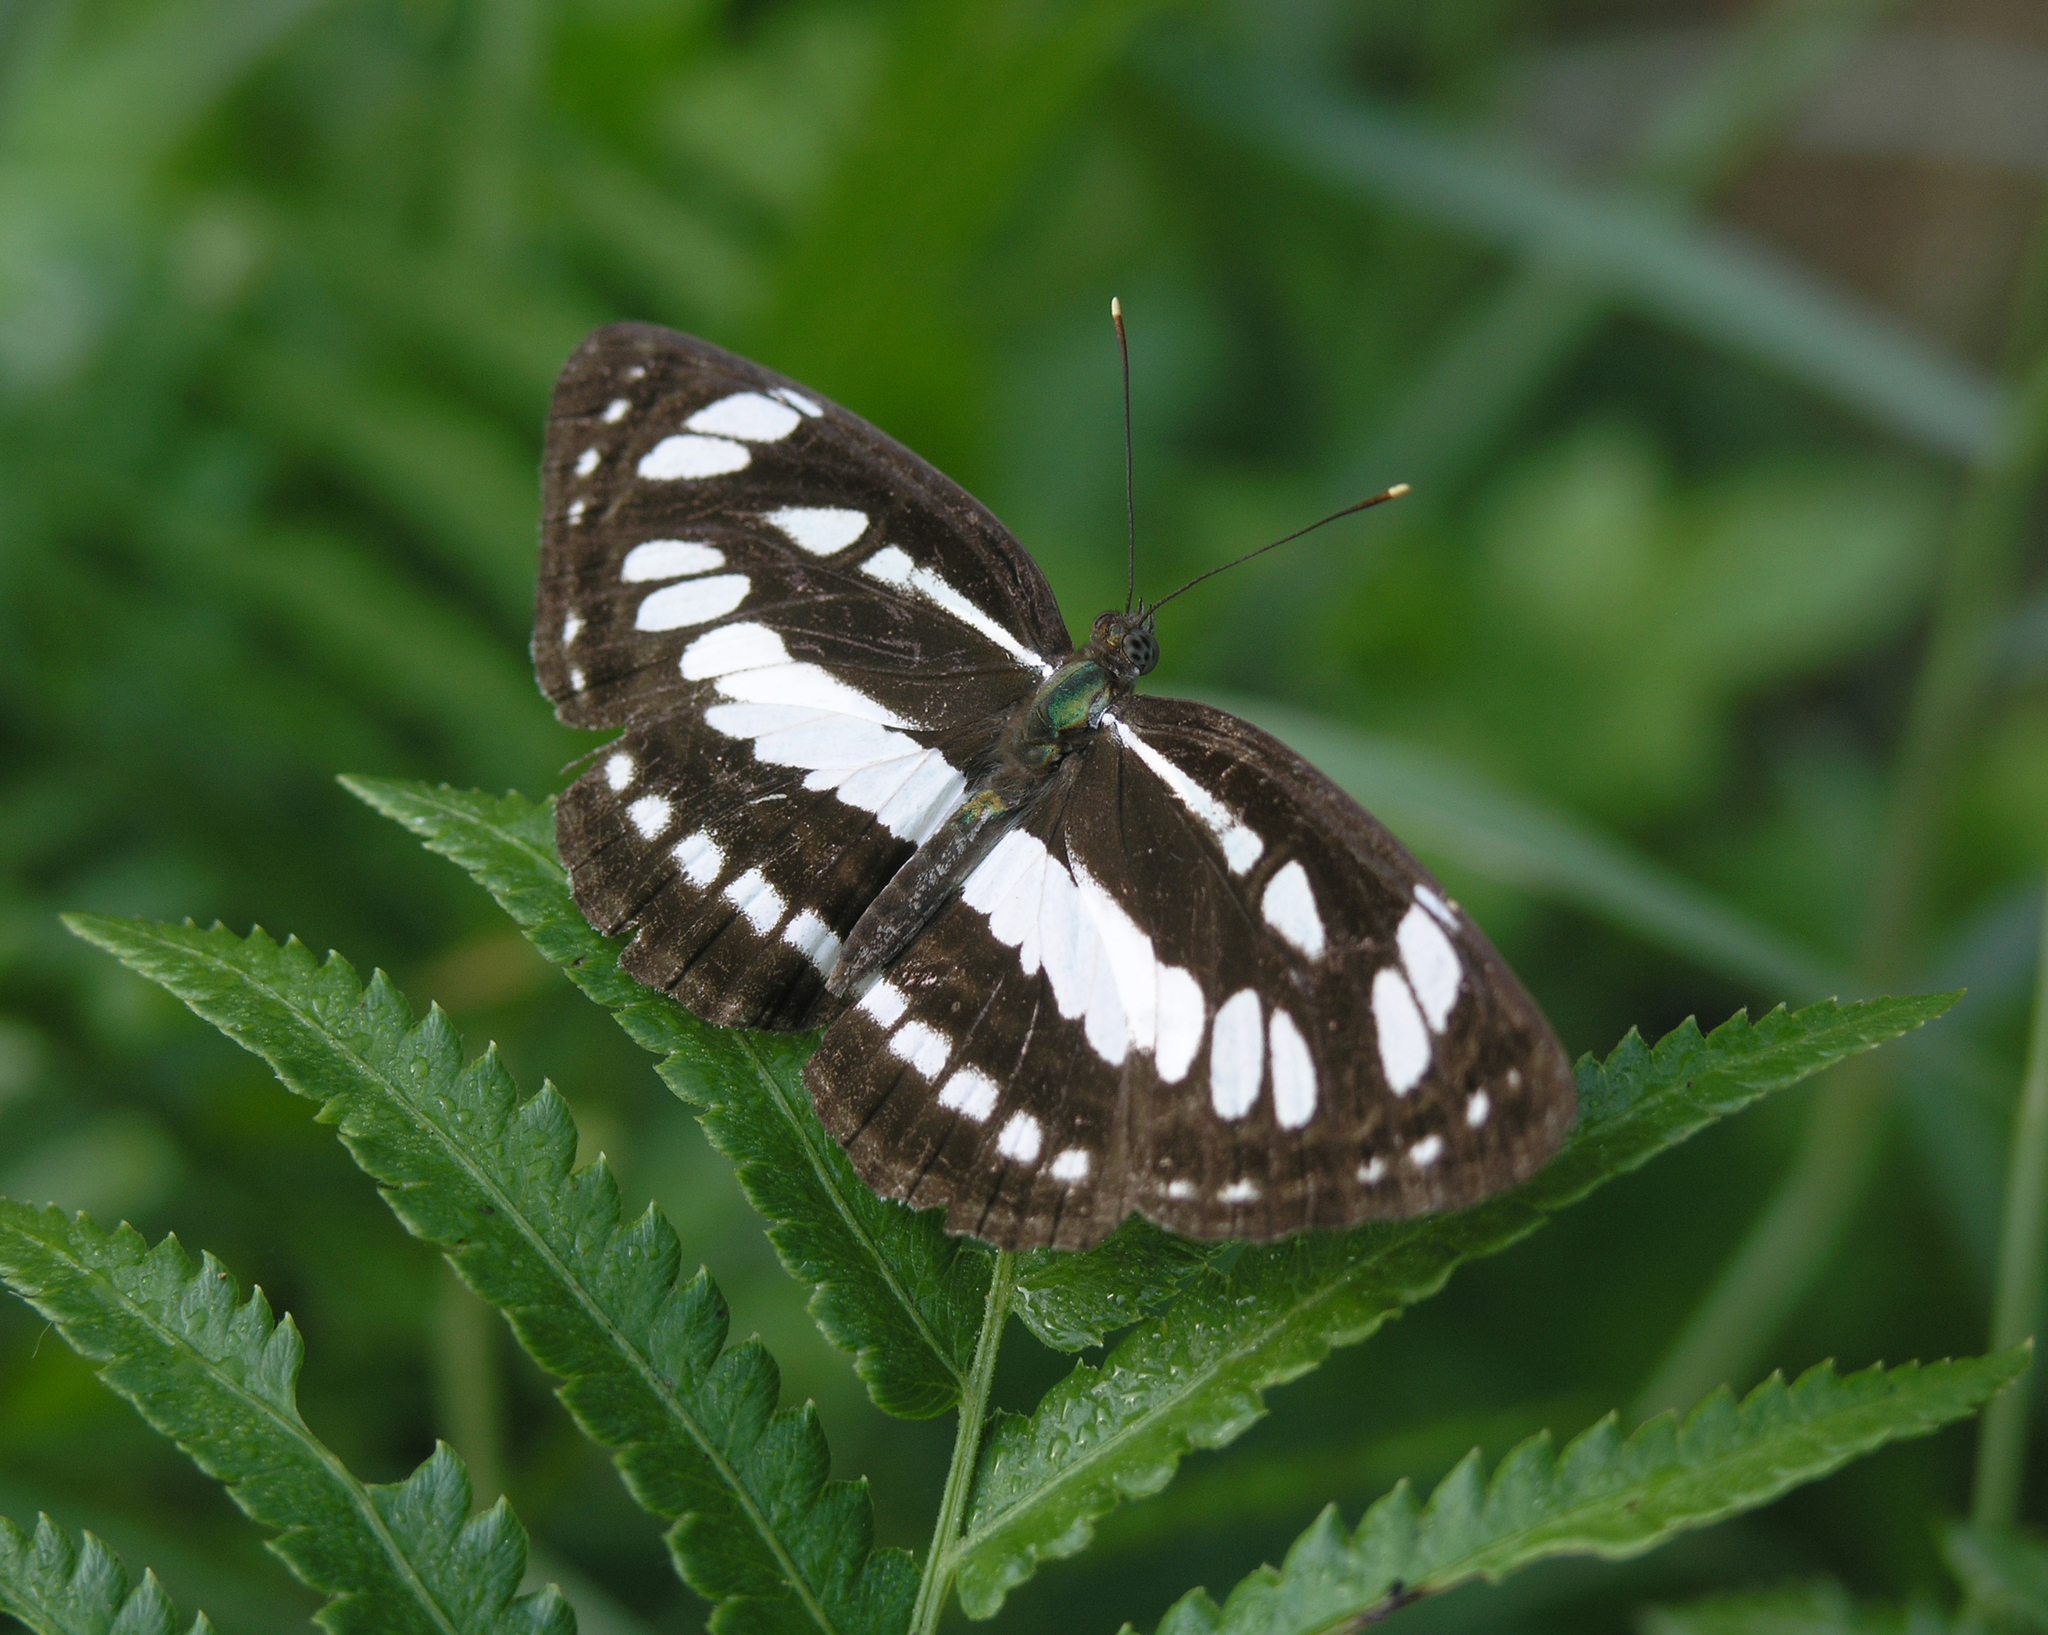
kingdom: Animalia
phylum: Arthropoda
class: Insecta
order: Lepidoptera
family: Nymphalidae
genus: Neptis
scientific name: Neptis hylas
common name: Common sailer
